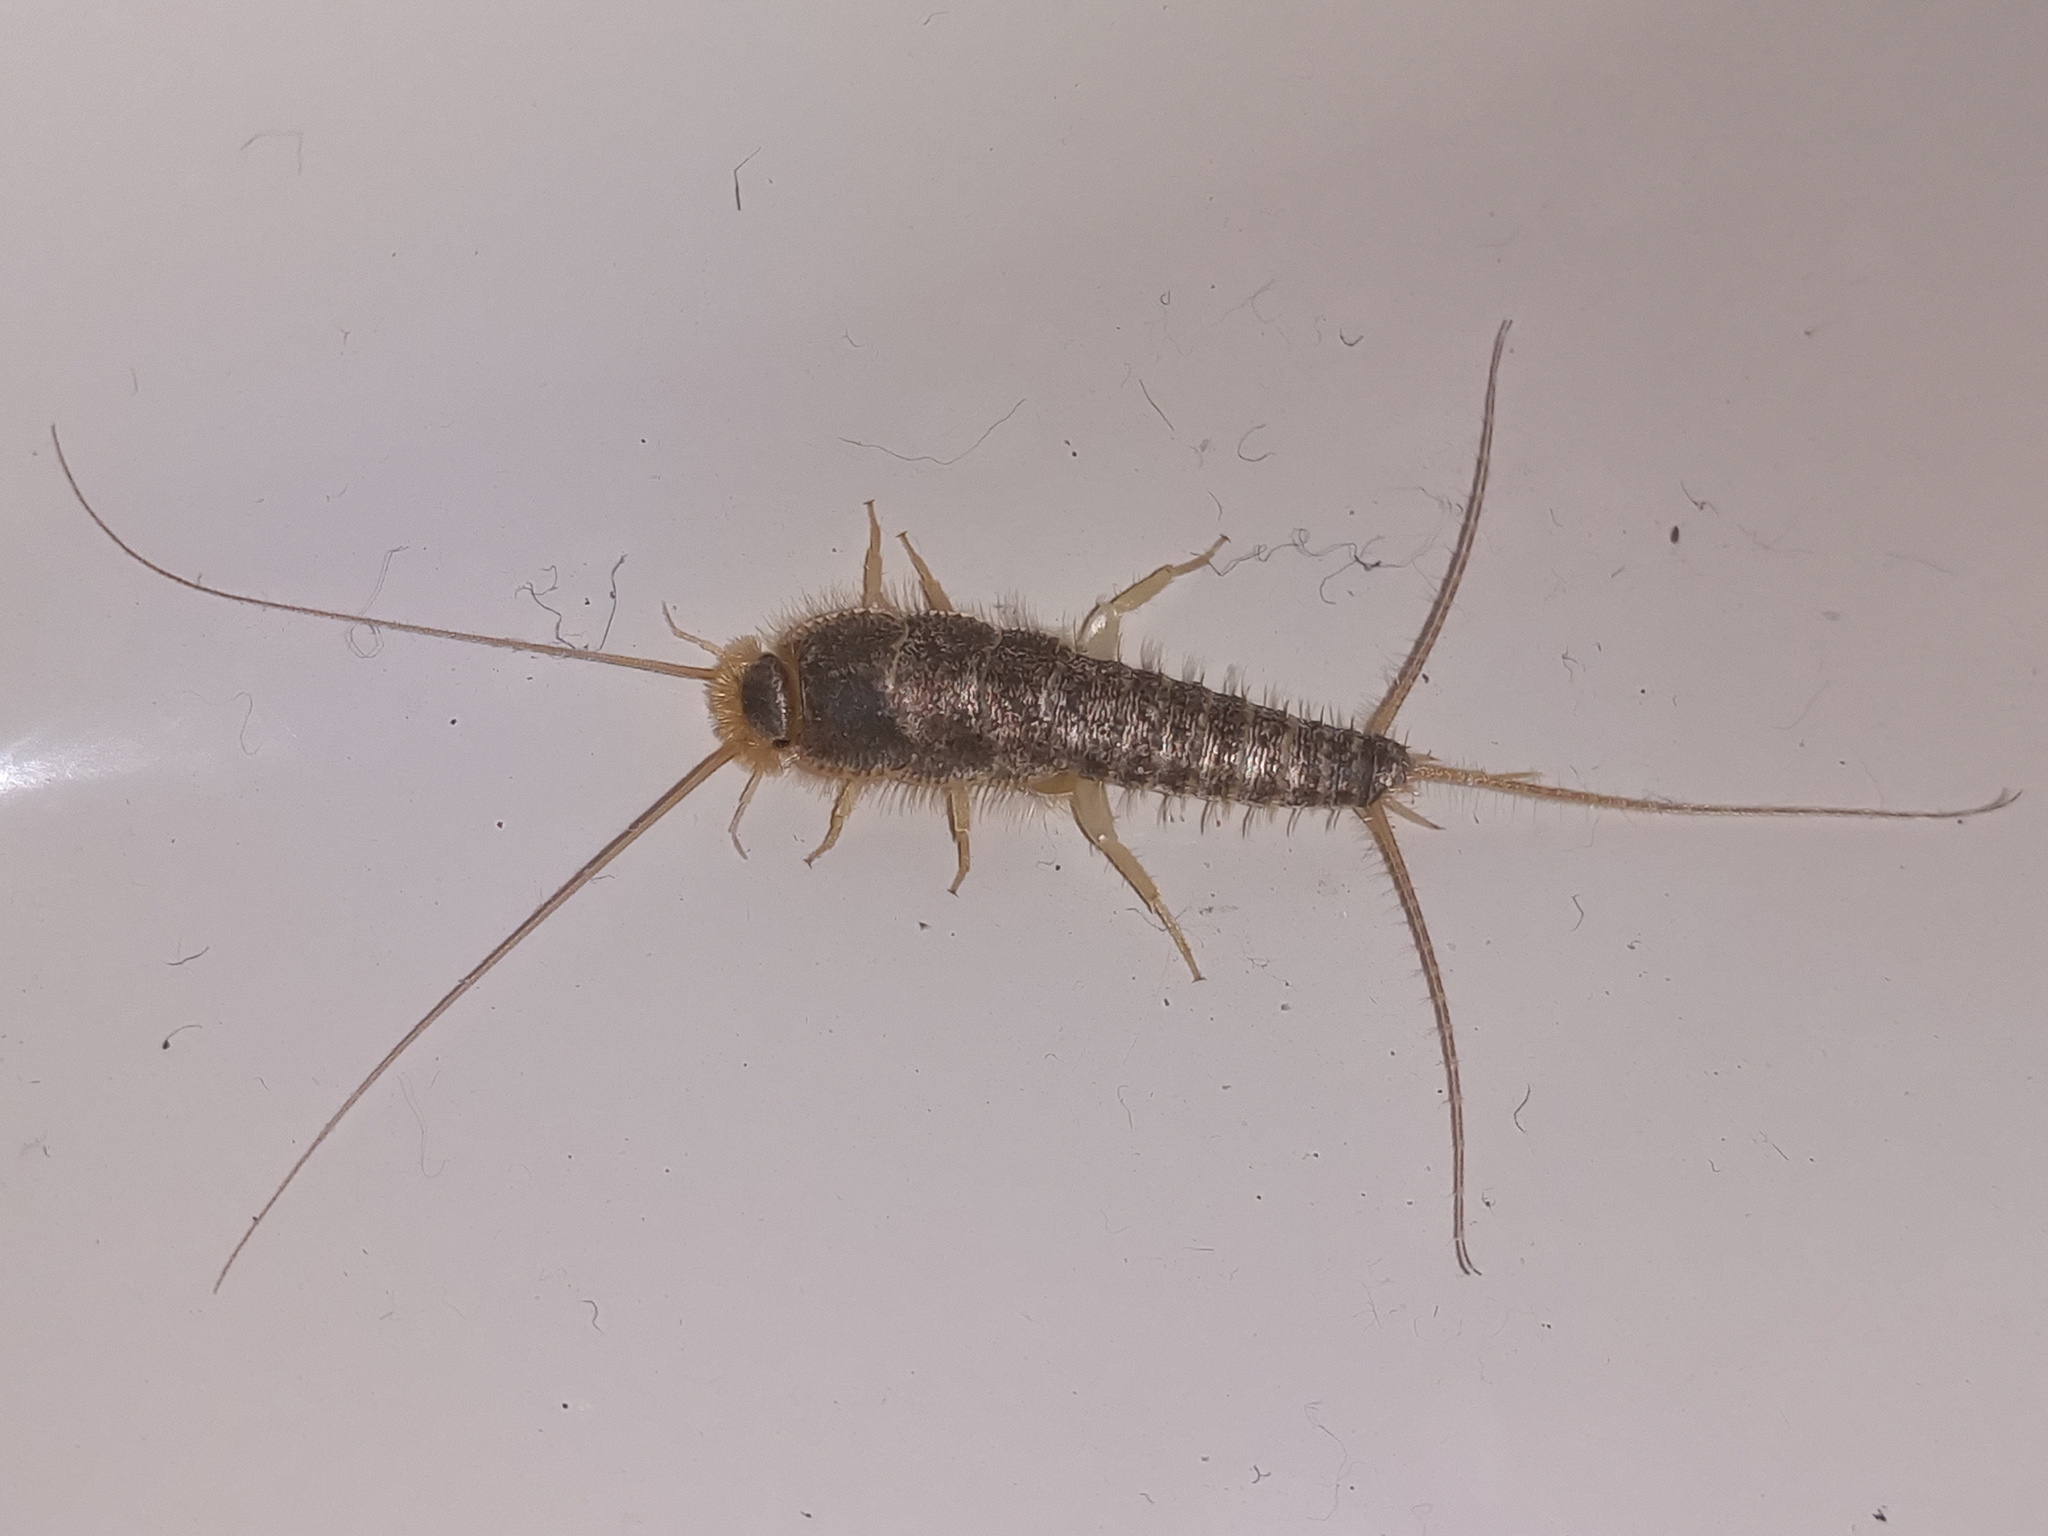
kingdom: Animalia
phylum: Arthropoda
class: Insecta
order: Zygentoma
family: Lepismatidae
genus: Ctenolepisma
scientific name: Ctenolepisma longicaudatum
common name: Silverfish
